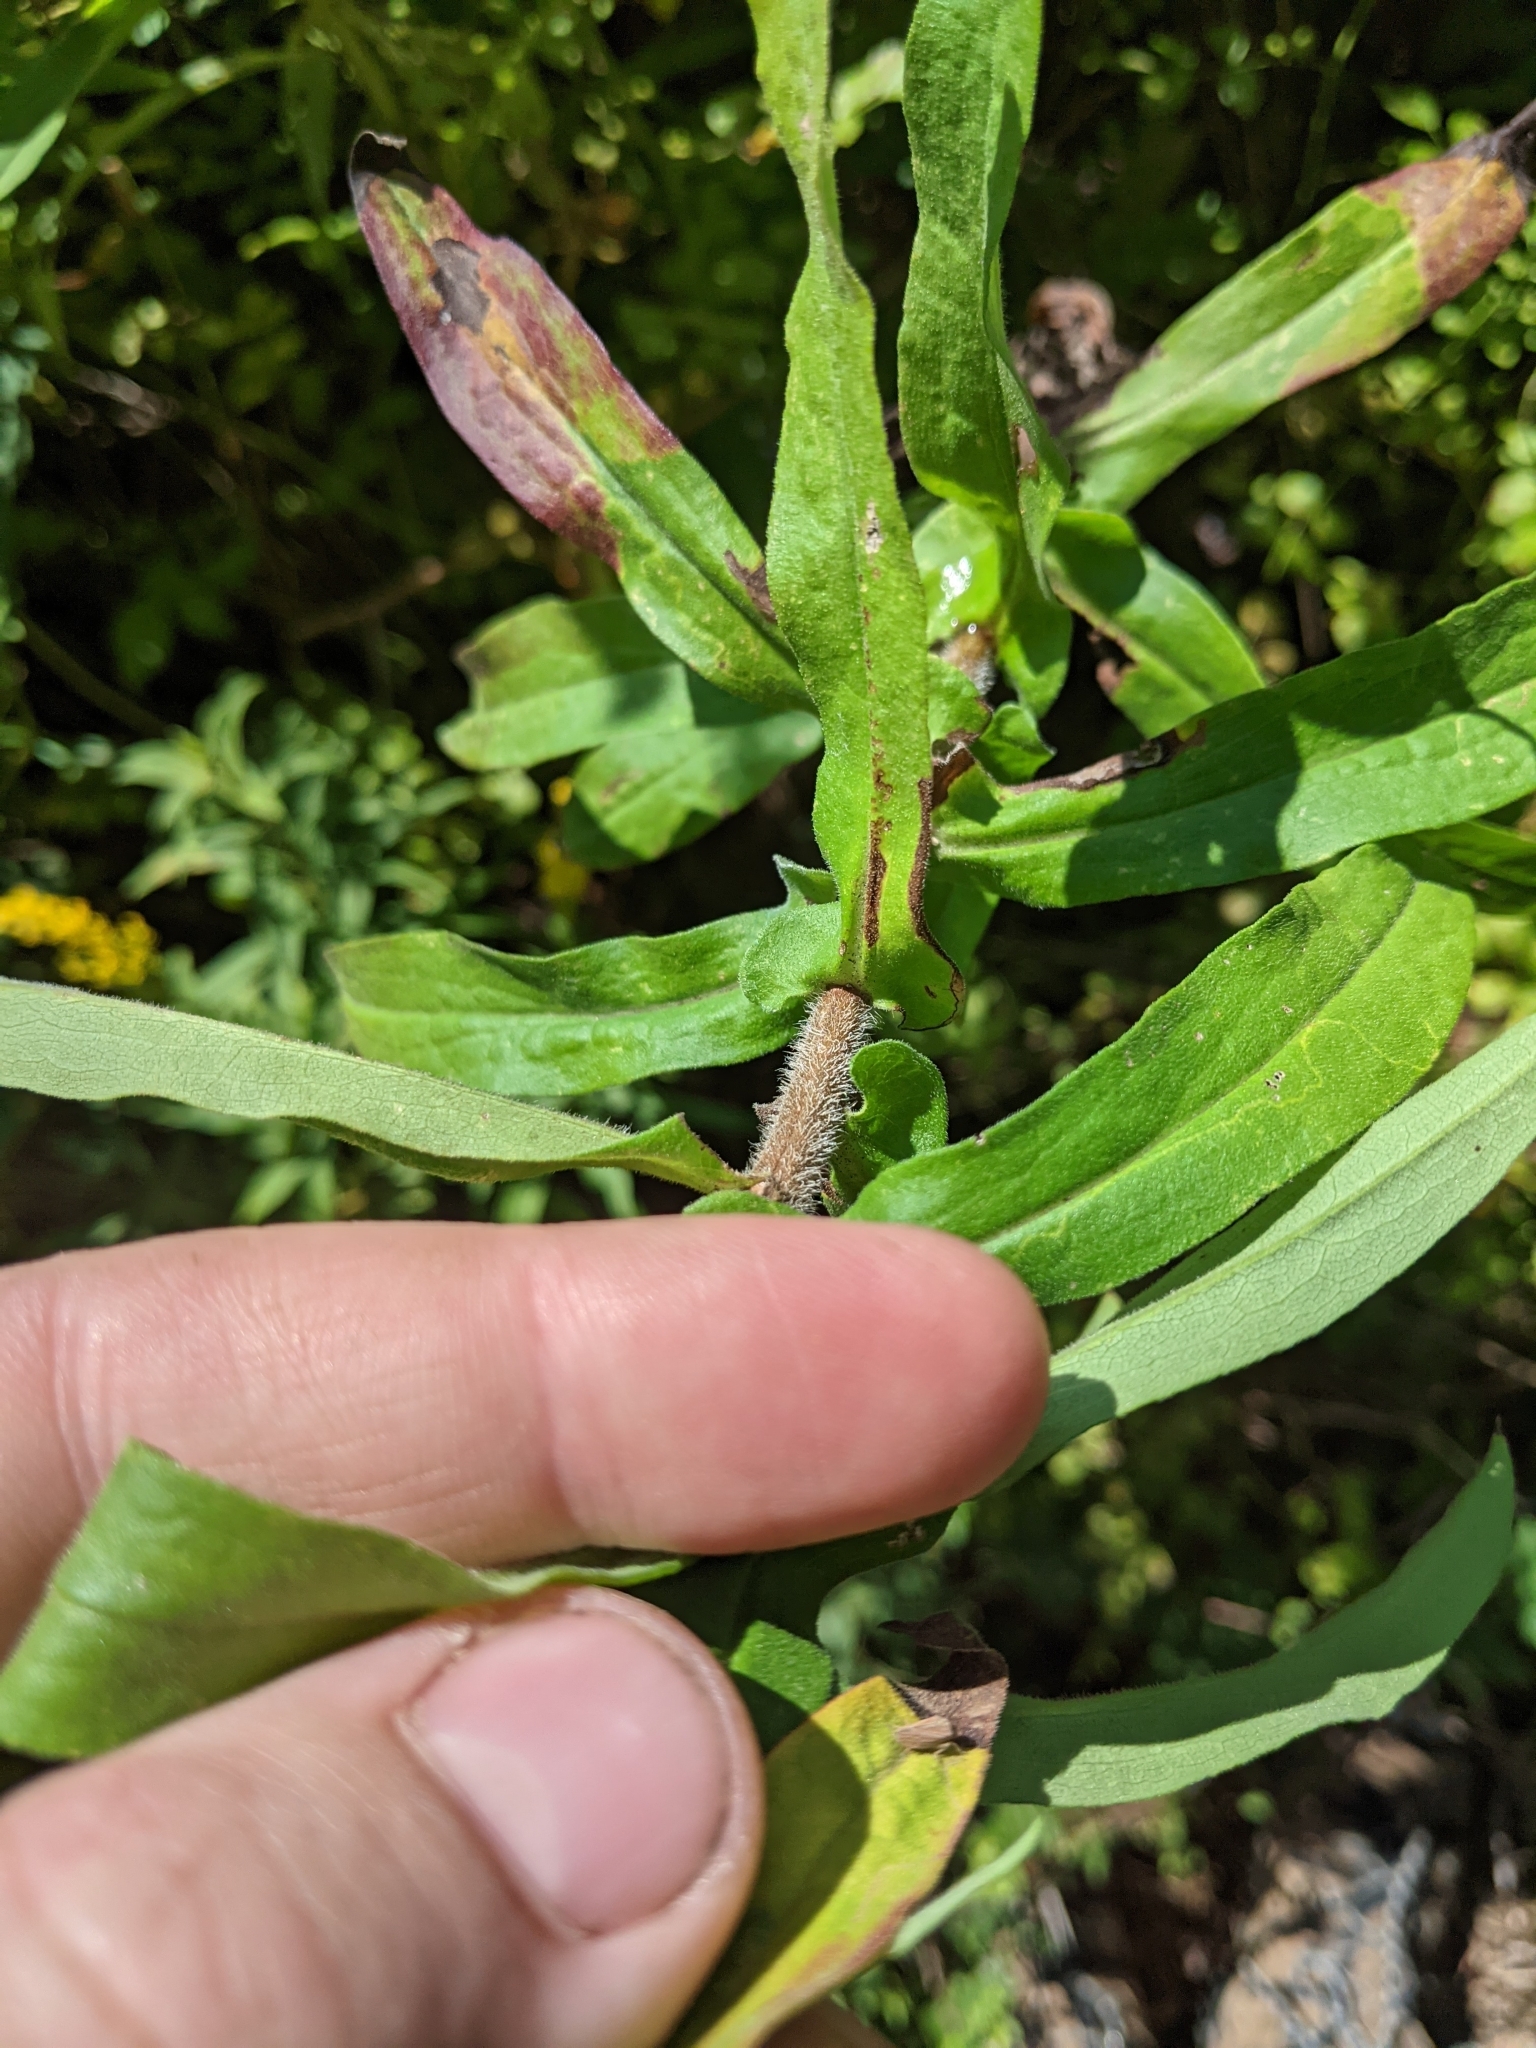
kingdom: Plantae
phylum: Tracheophyta
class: Magnoliopsida
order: Asterales
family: Asteraceae
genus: Symphyotrichum
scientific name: Symphyotrichum novae-angliae
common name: Michaelmas daisy
